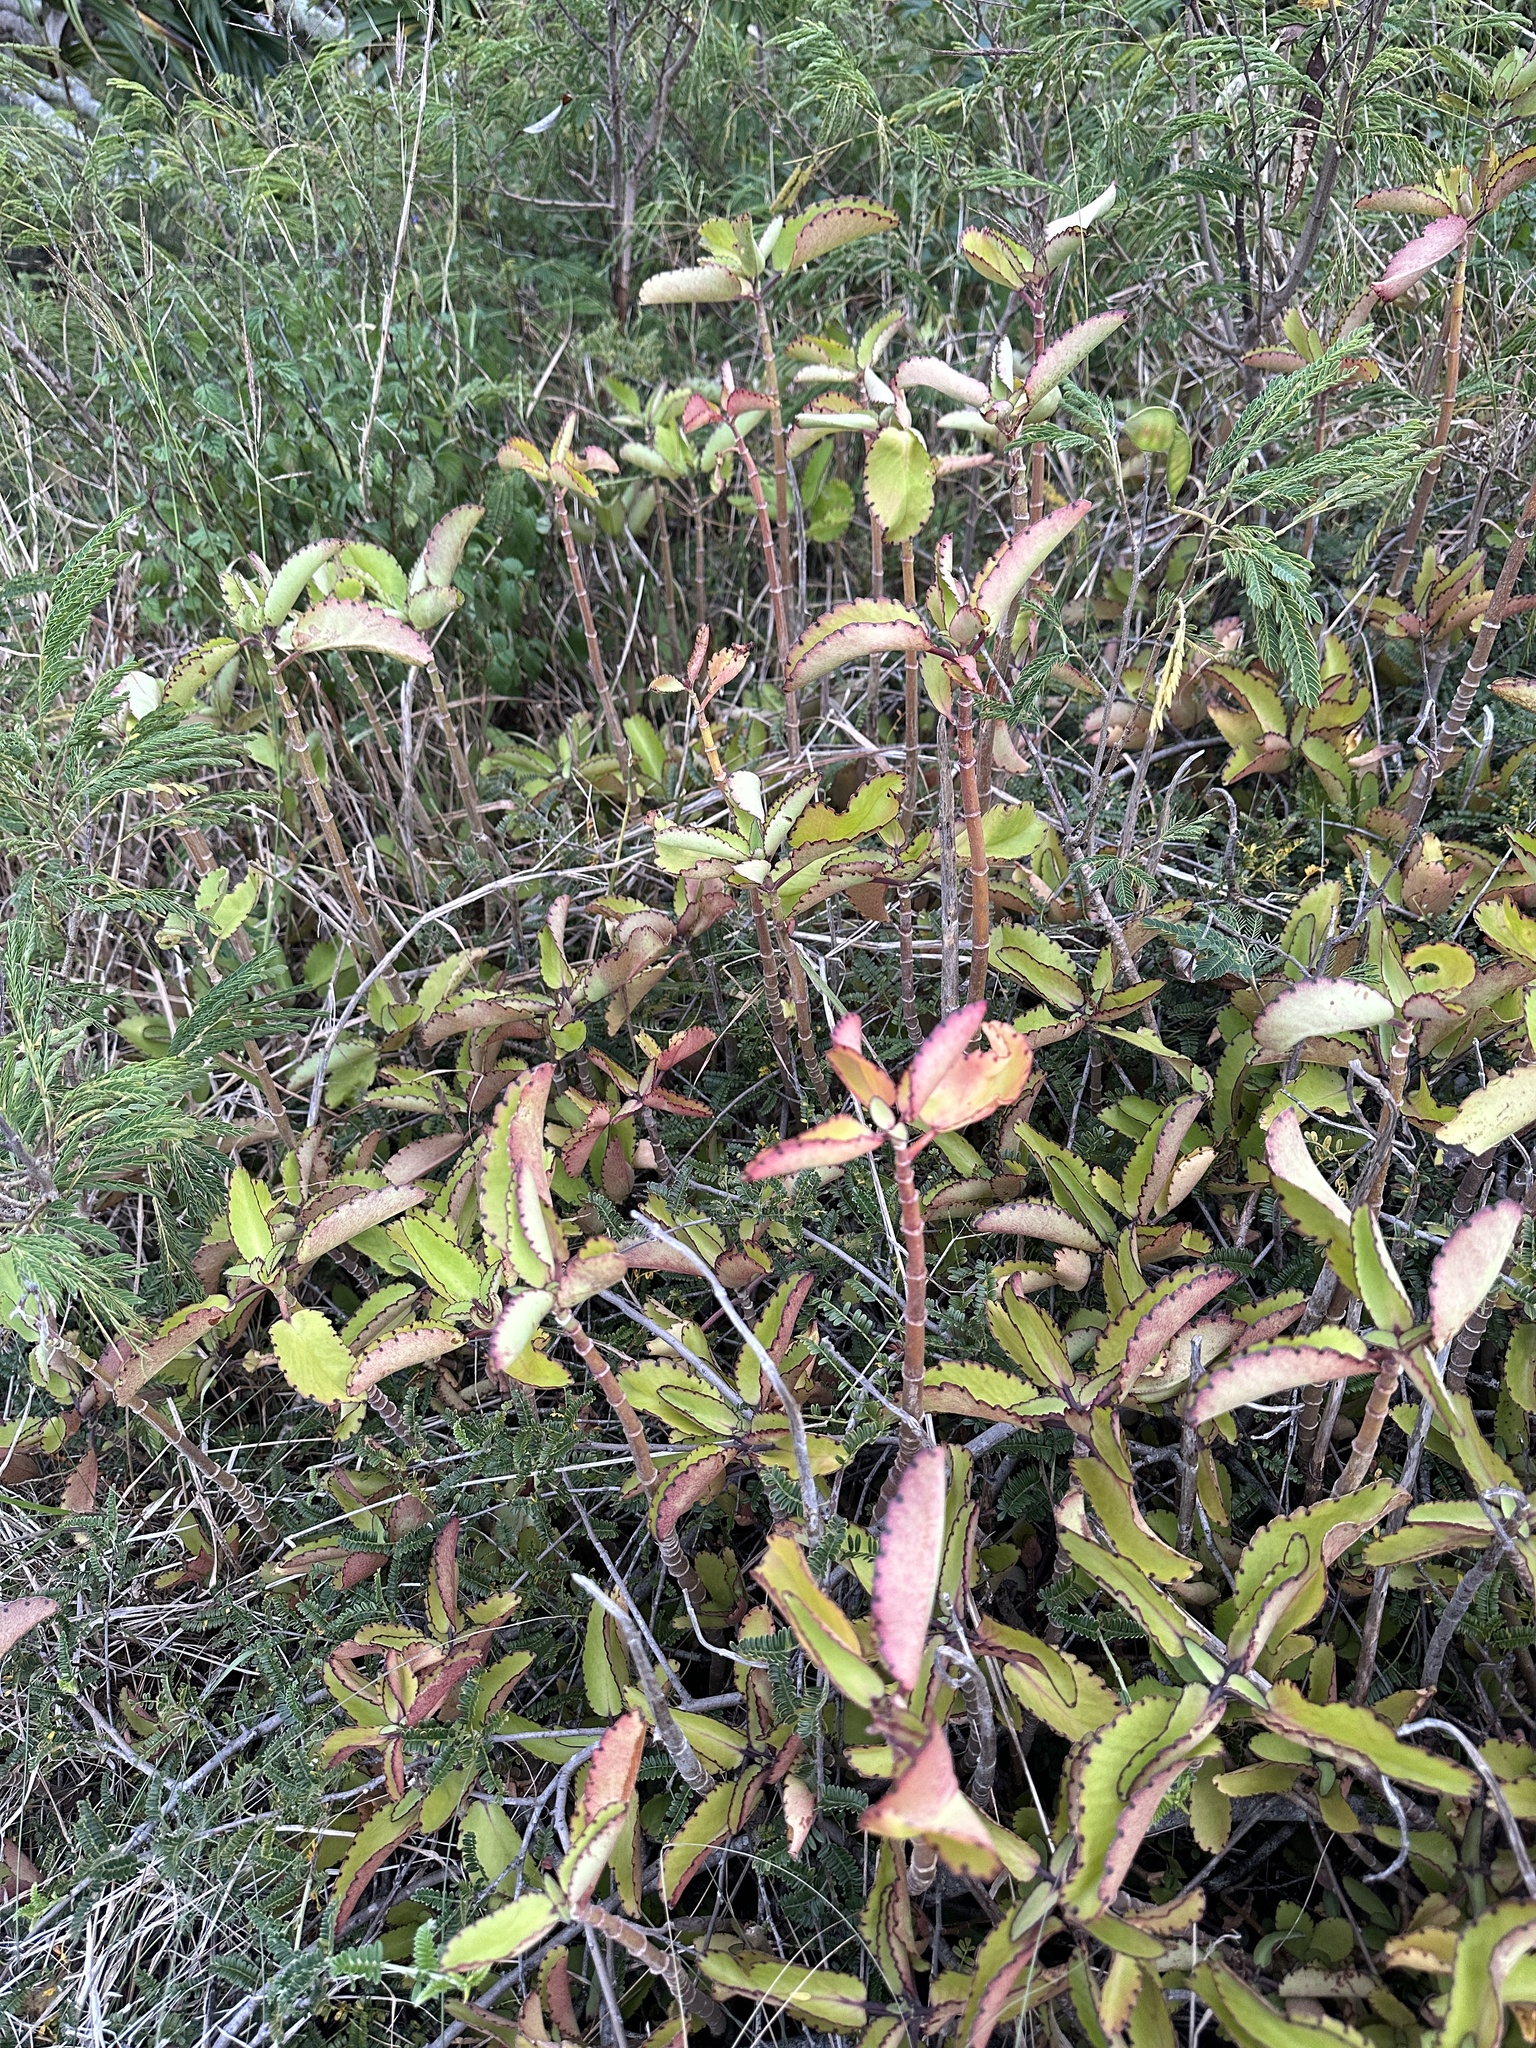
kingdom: Plantae
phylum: Tracheophyta
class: Magnoliopsida
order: Saxifragales
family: Crassulaceae
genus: Kalanchoe
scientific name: Kalanchoe pinnata
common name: Cathedral bells
